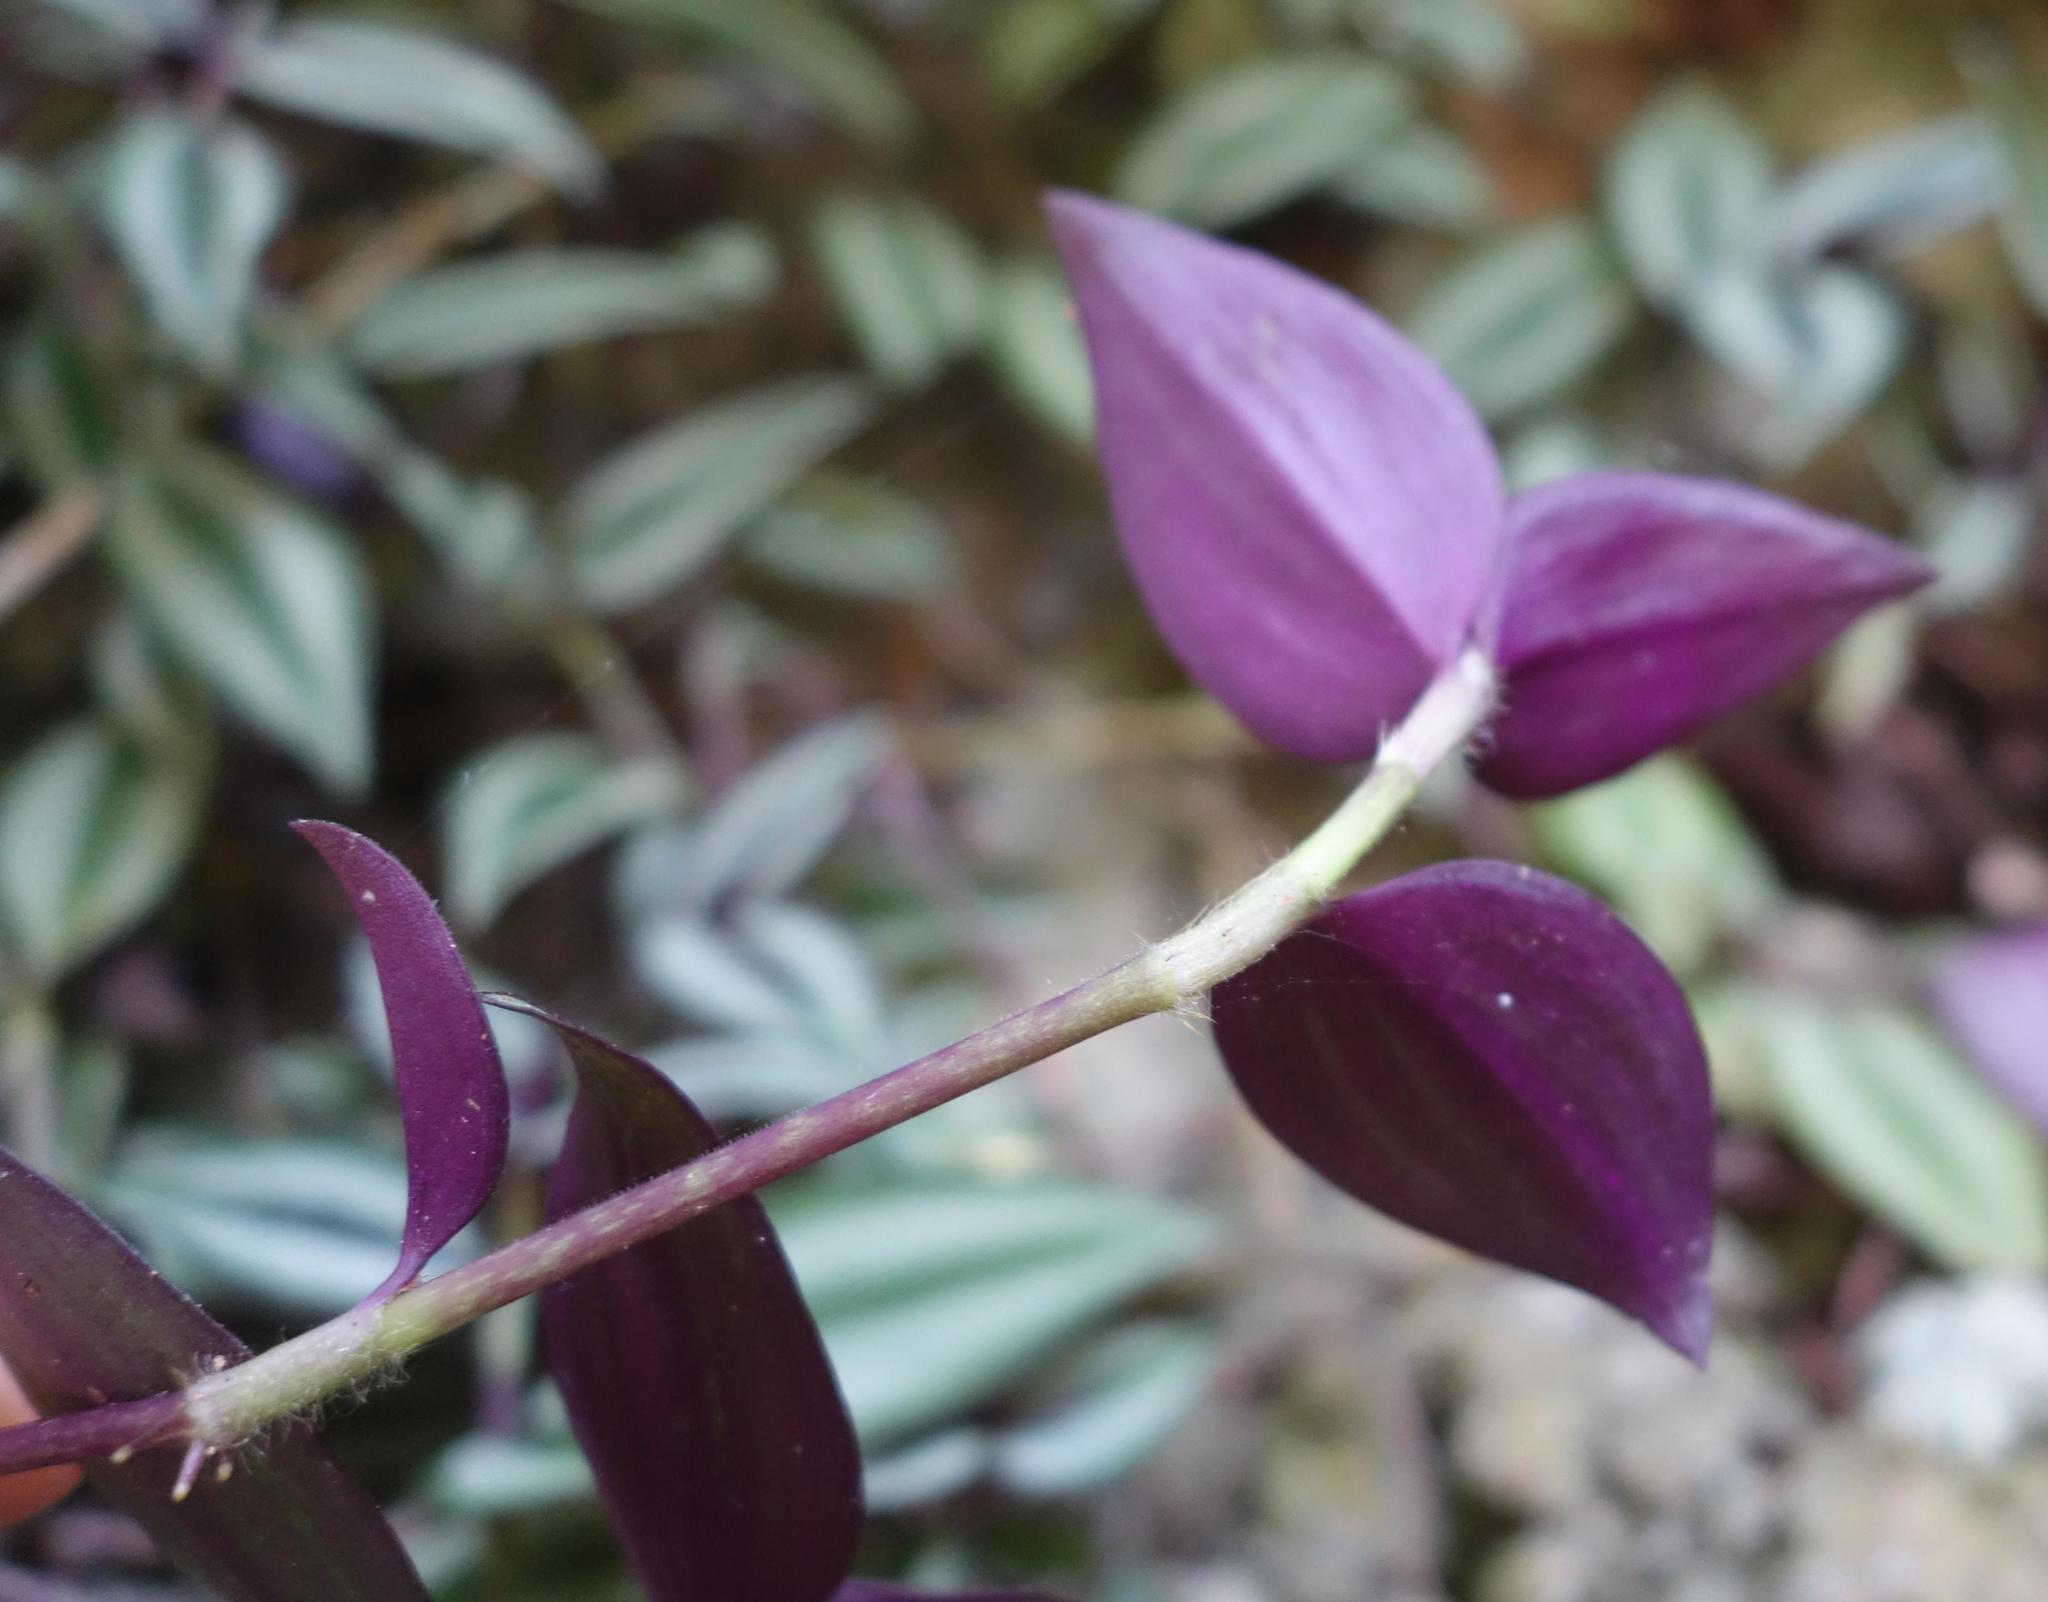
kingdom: Plantae
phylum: Tracheophyta
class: Liliopsida
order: Commelinales
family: Commelinaceae
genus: Tradescantia
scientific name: Tradescantia zebrina
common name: Inchplant
